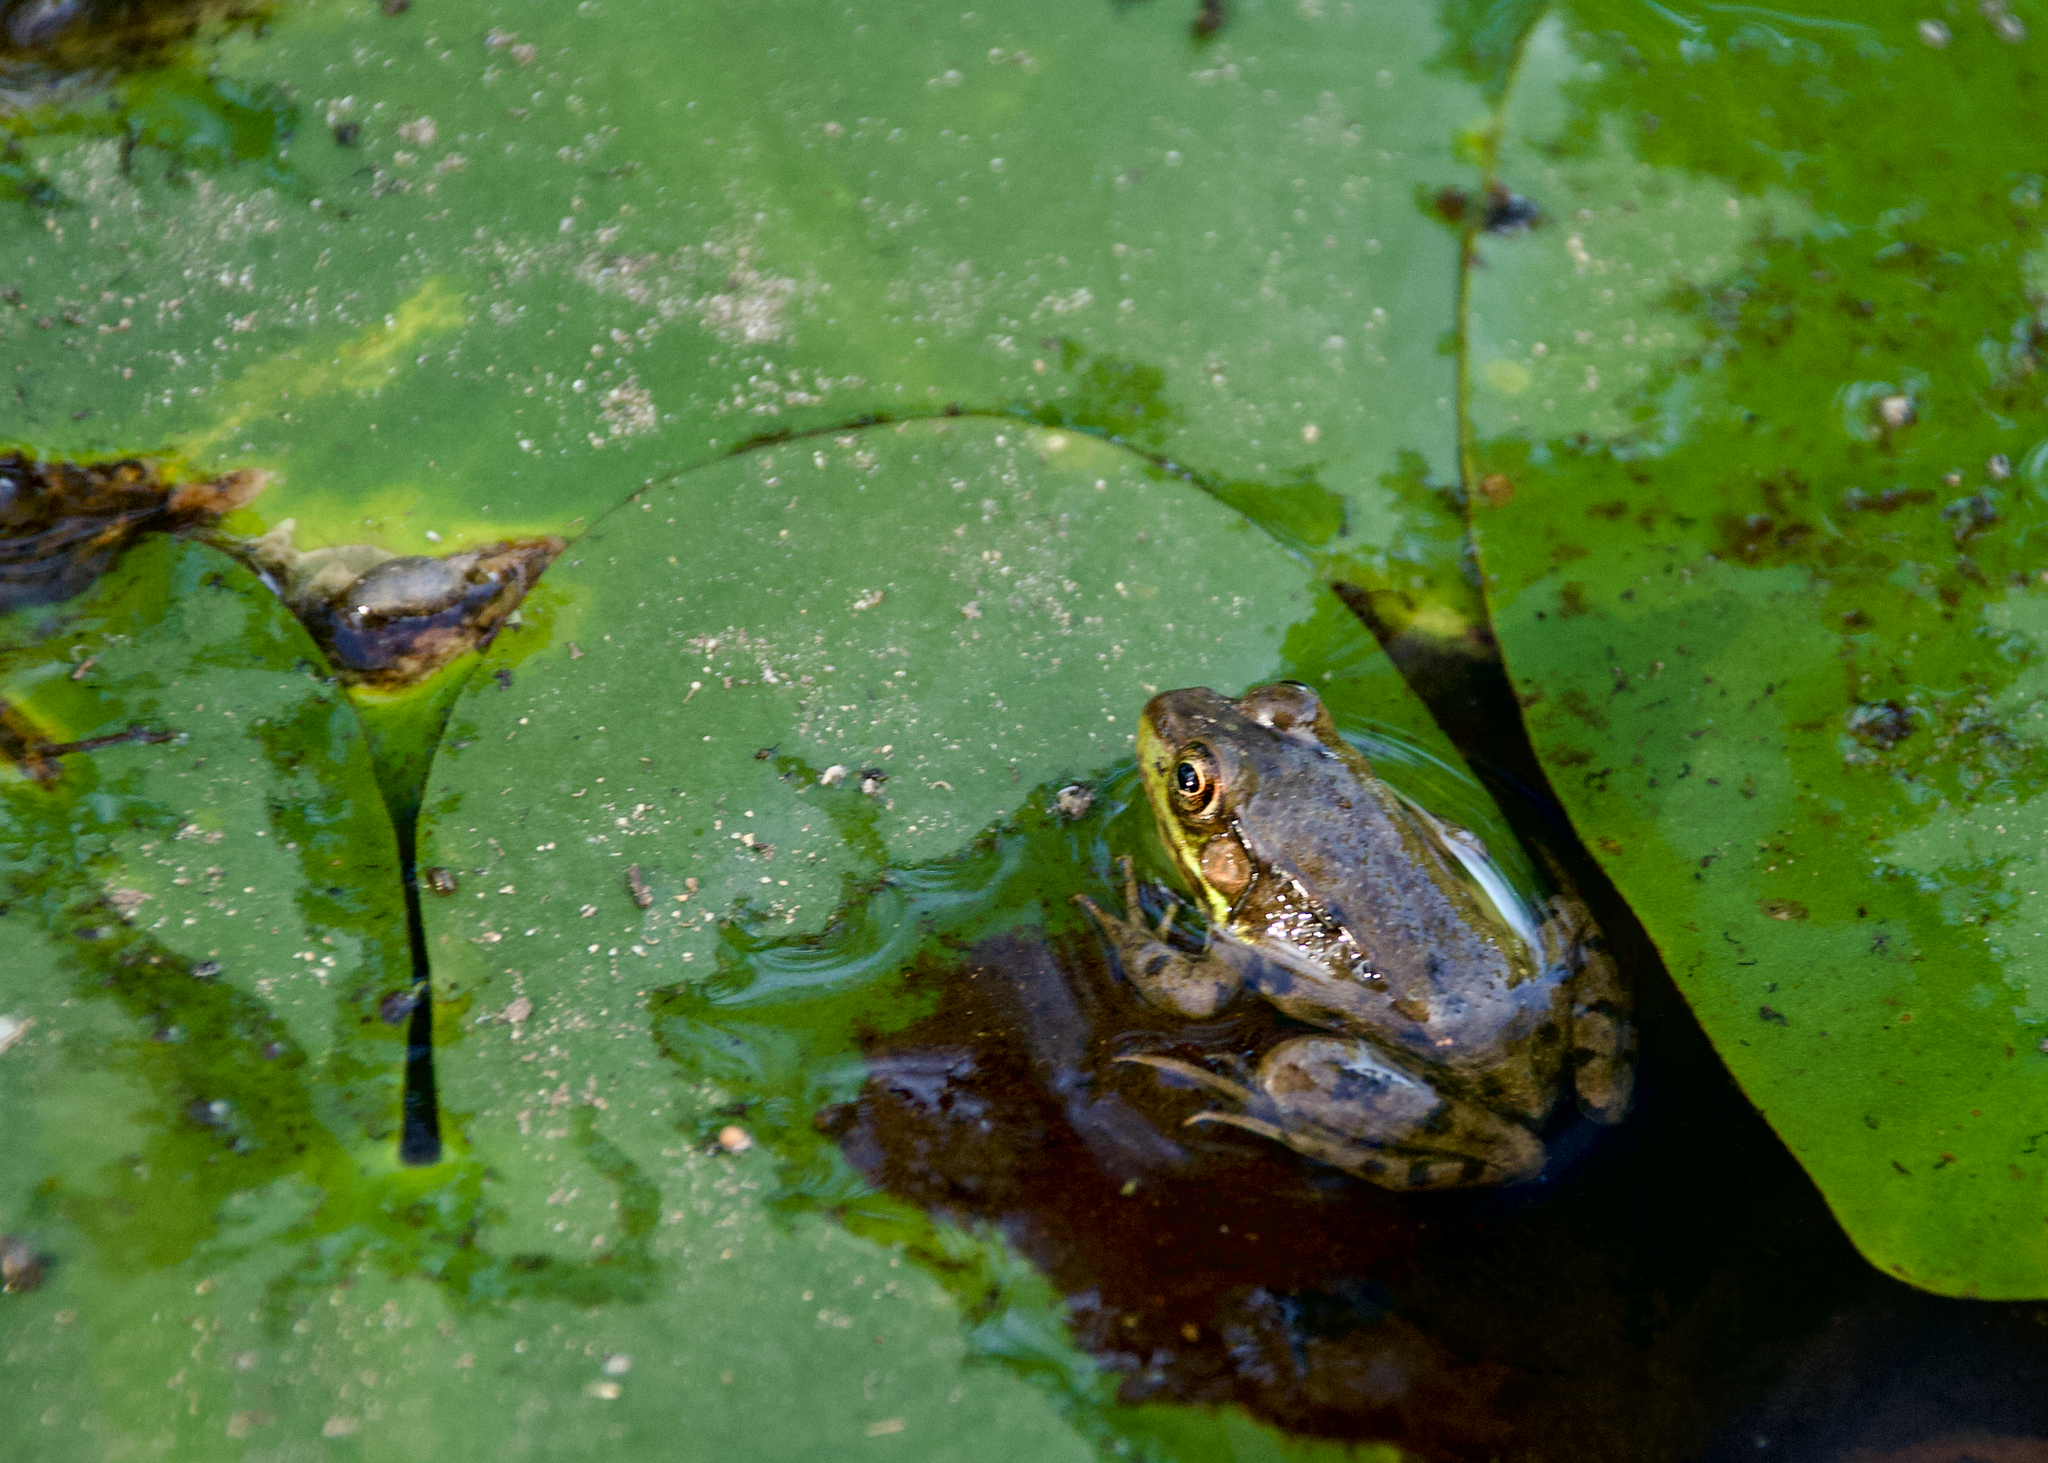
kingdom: Animalia
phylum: Chordata
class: Amphibia
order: Anura
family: Ranidae
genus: Lithobates
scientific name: Lithobates clamitans
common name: Green frog
